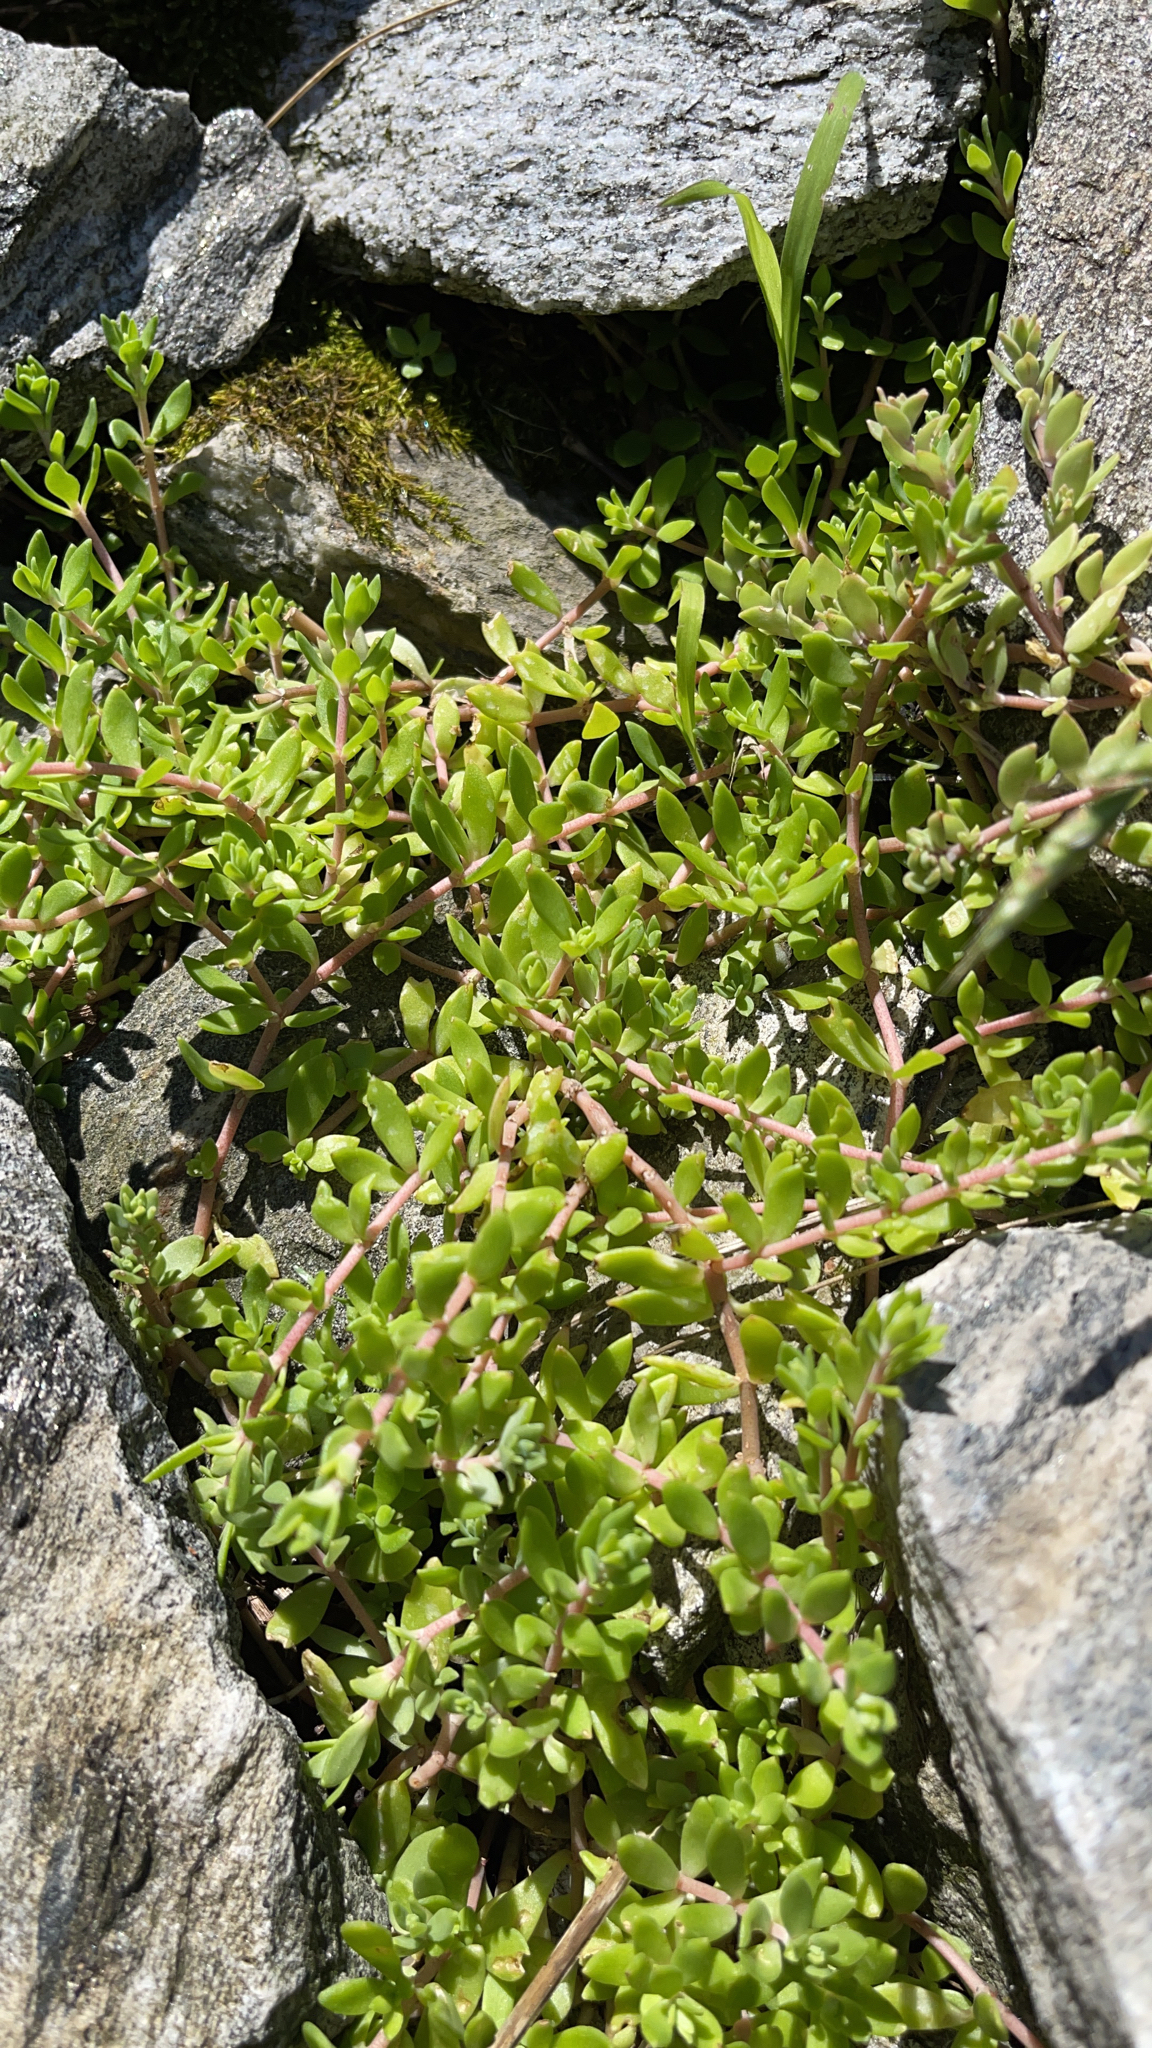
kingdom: Plantae
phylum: Tracheophyta
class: Magnoliopsida
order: Saxifragales
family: Crassulaceae
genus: Sedum
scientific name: Sedum sarmentosum
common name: Stringy stonecrop
